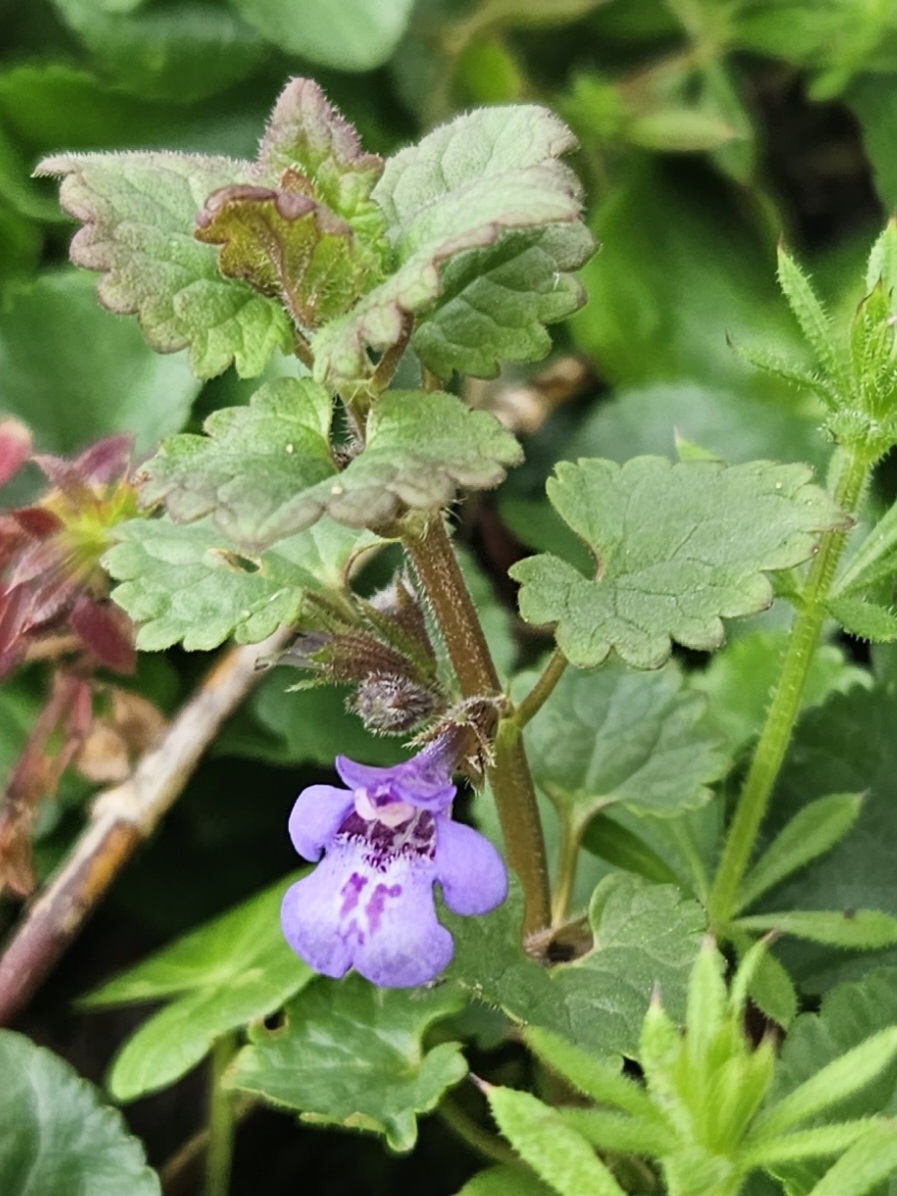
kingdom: Plantae
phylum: Tracheophyta
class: Magnoliopsida
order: Lamiales
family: Lamiaceae
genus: Glechoma
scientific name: Glechoma hederacea
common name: Ground ivy
